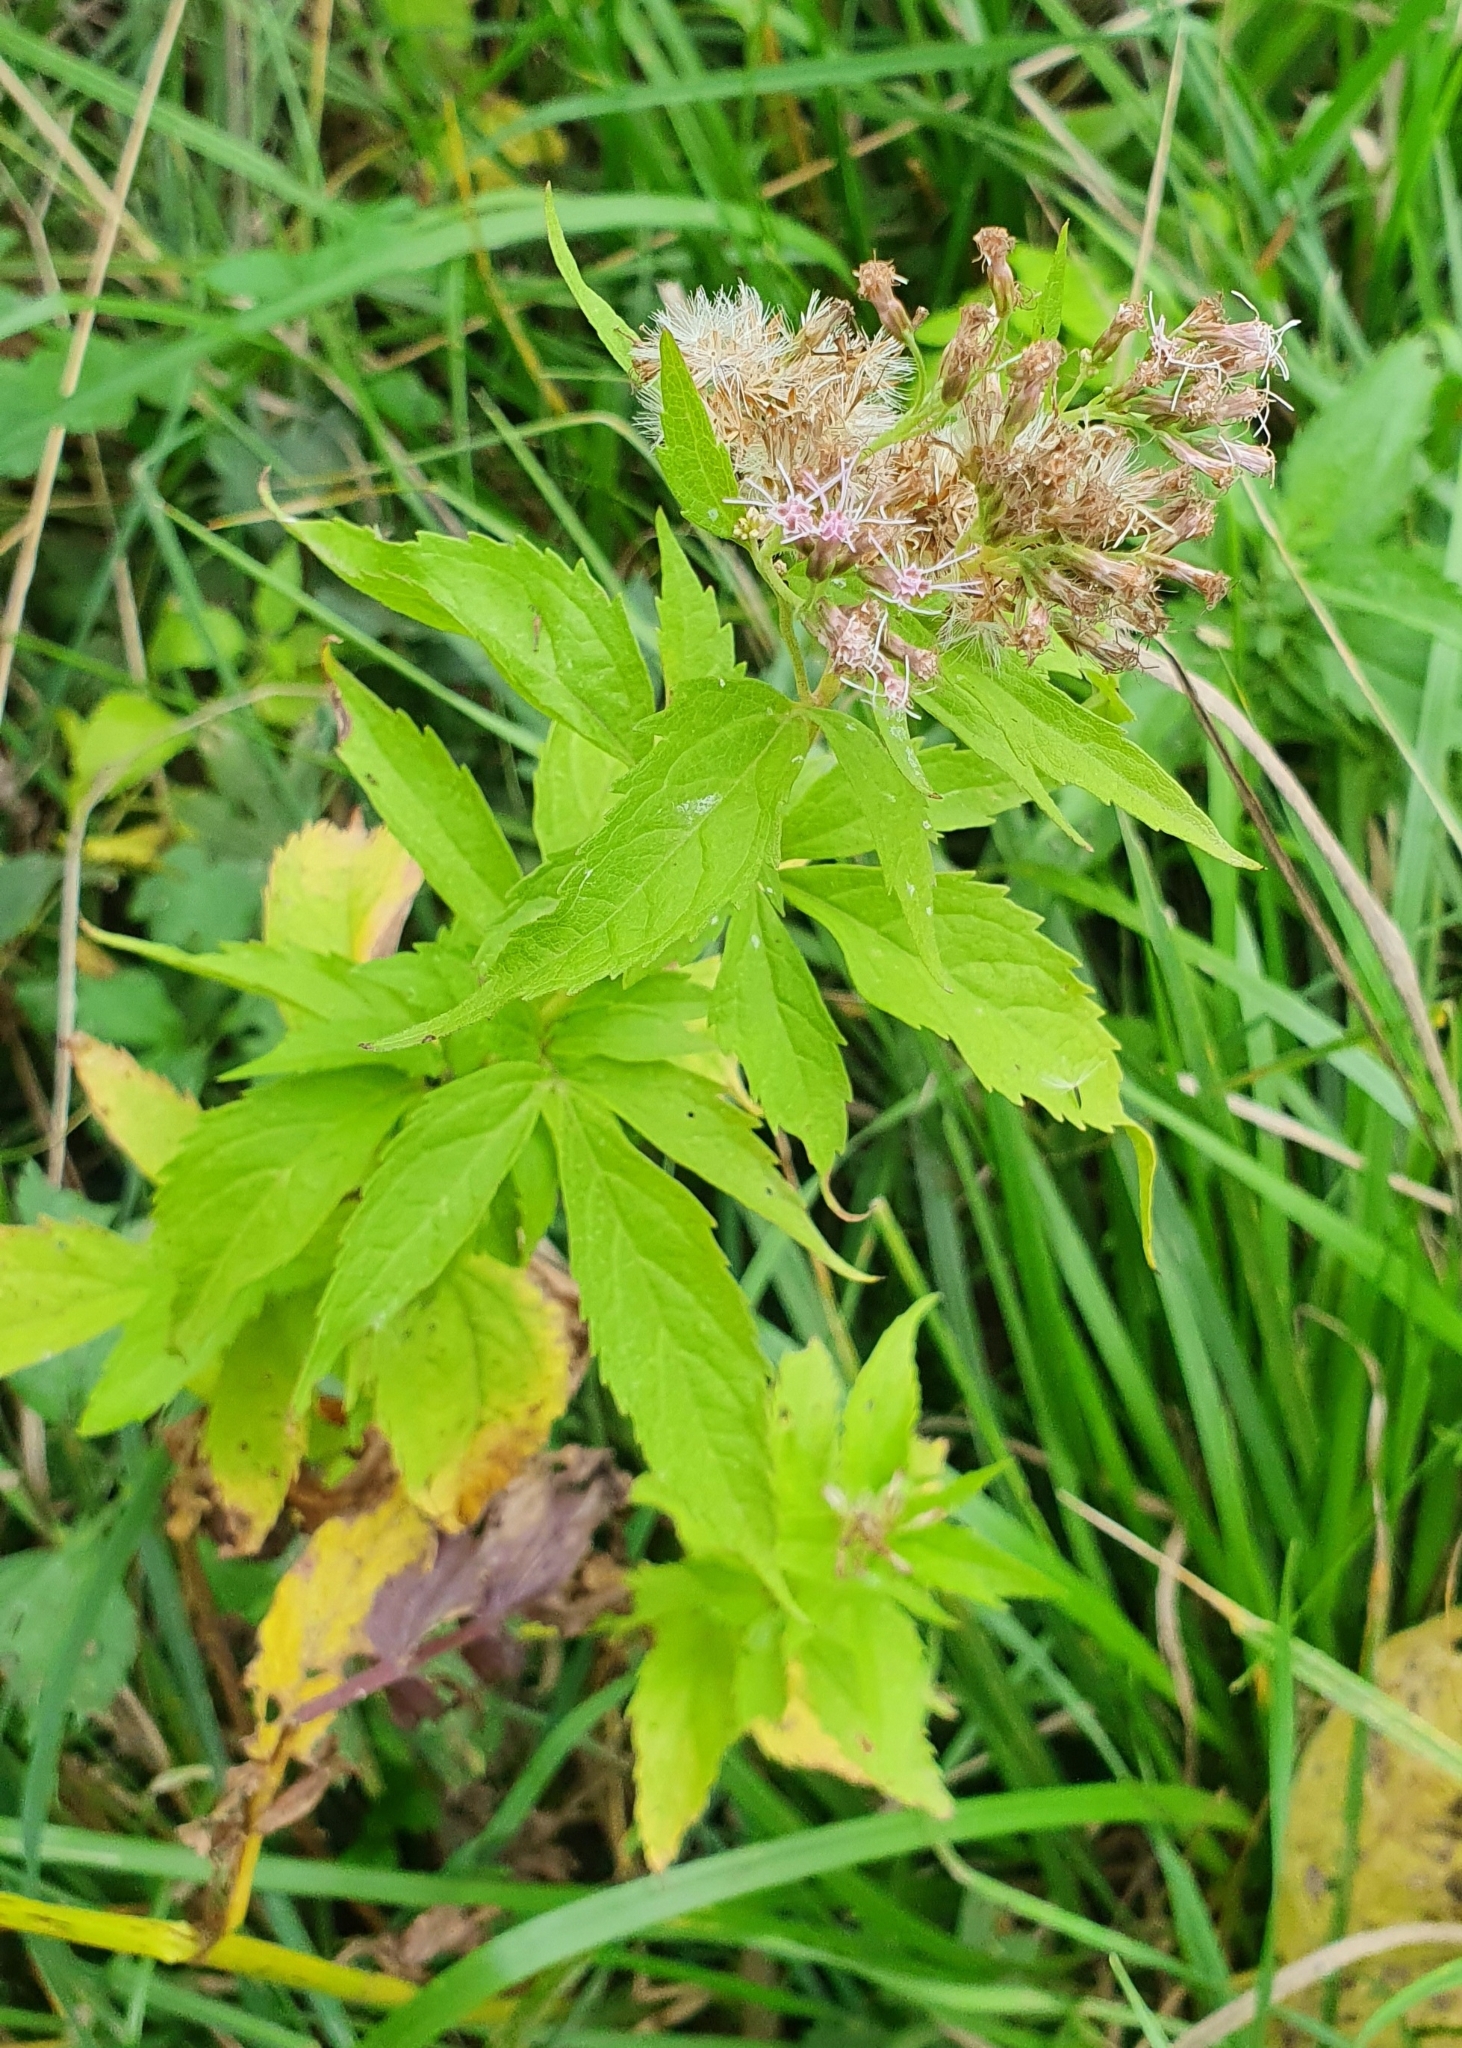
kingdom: Plantae
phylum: Tracheophyta
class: Magnoliopsida
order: Asterales
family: Asteraceae
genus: Eupatorium
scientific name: Eupatorium cannabinum
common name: Hemp-agrimony
